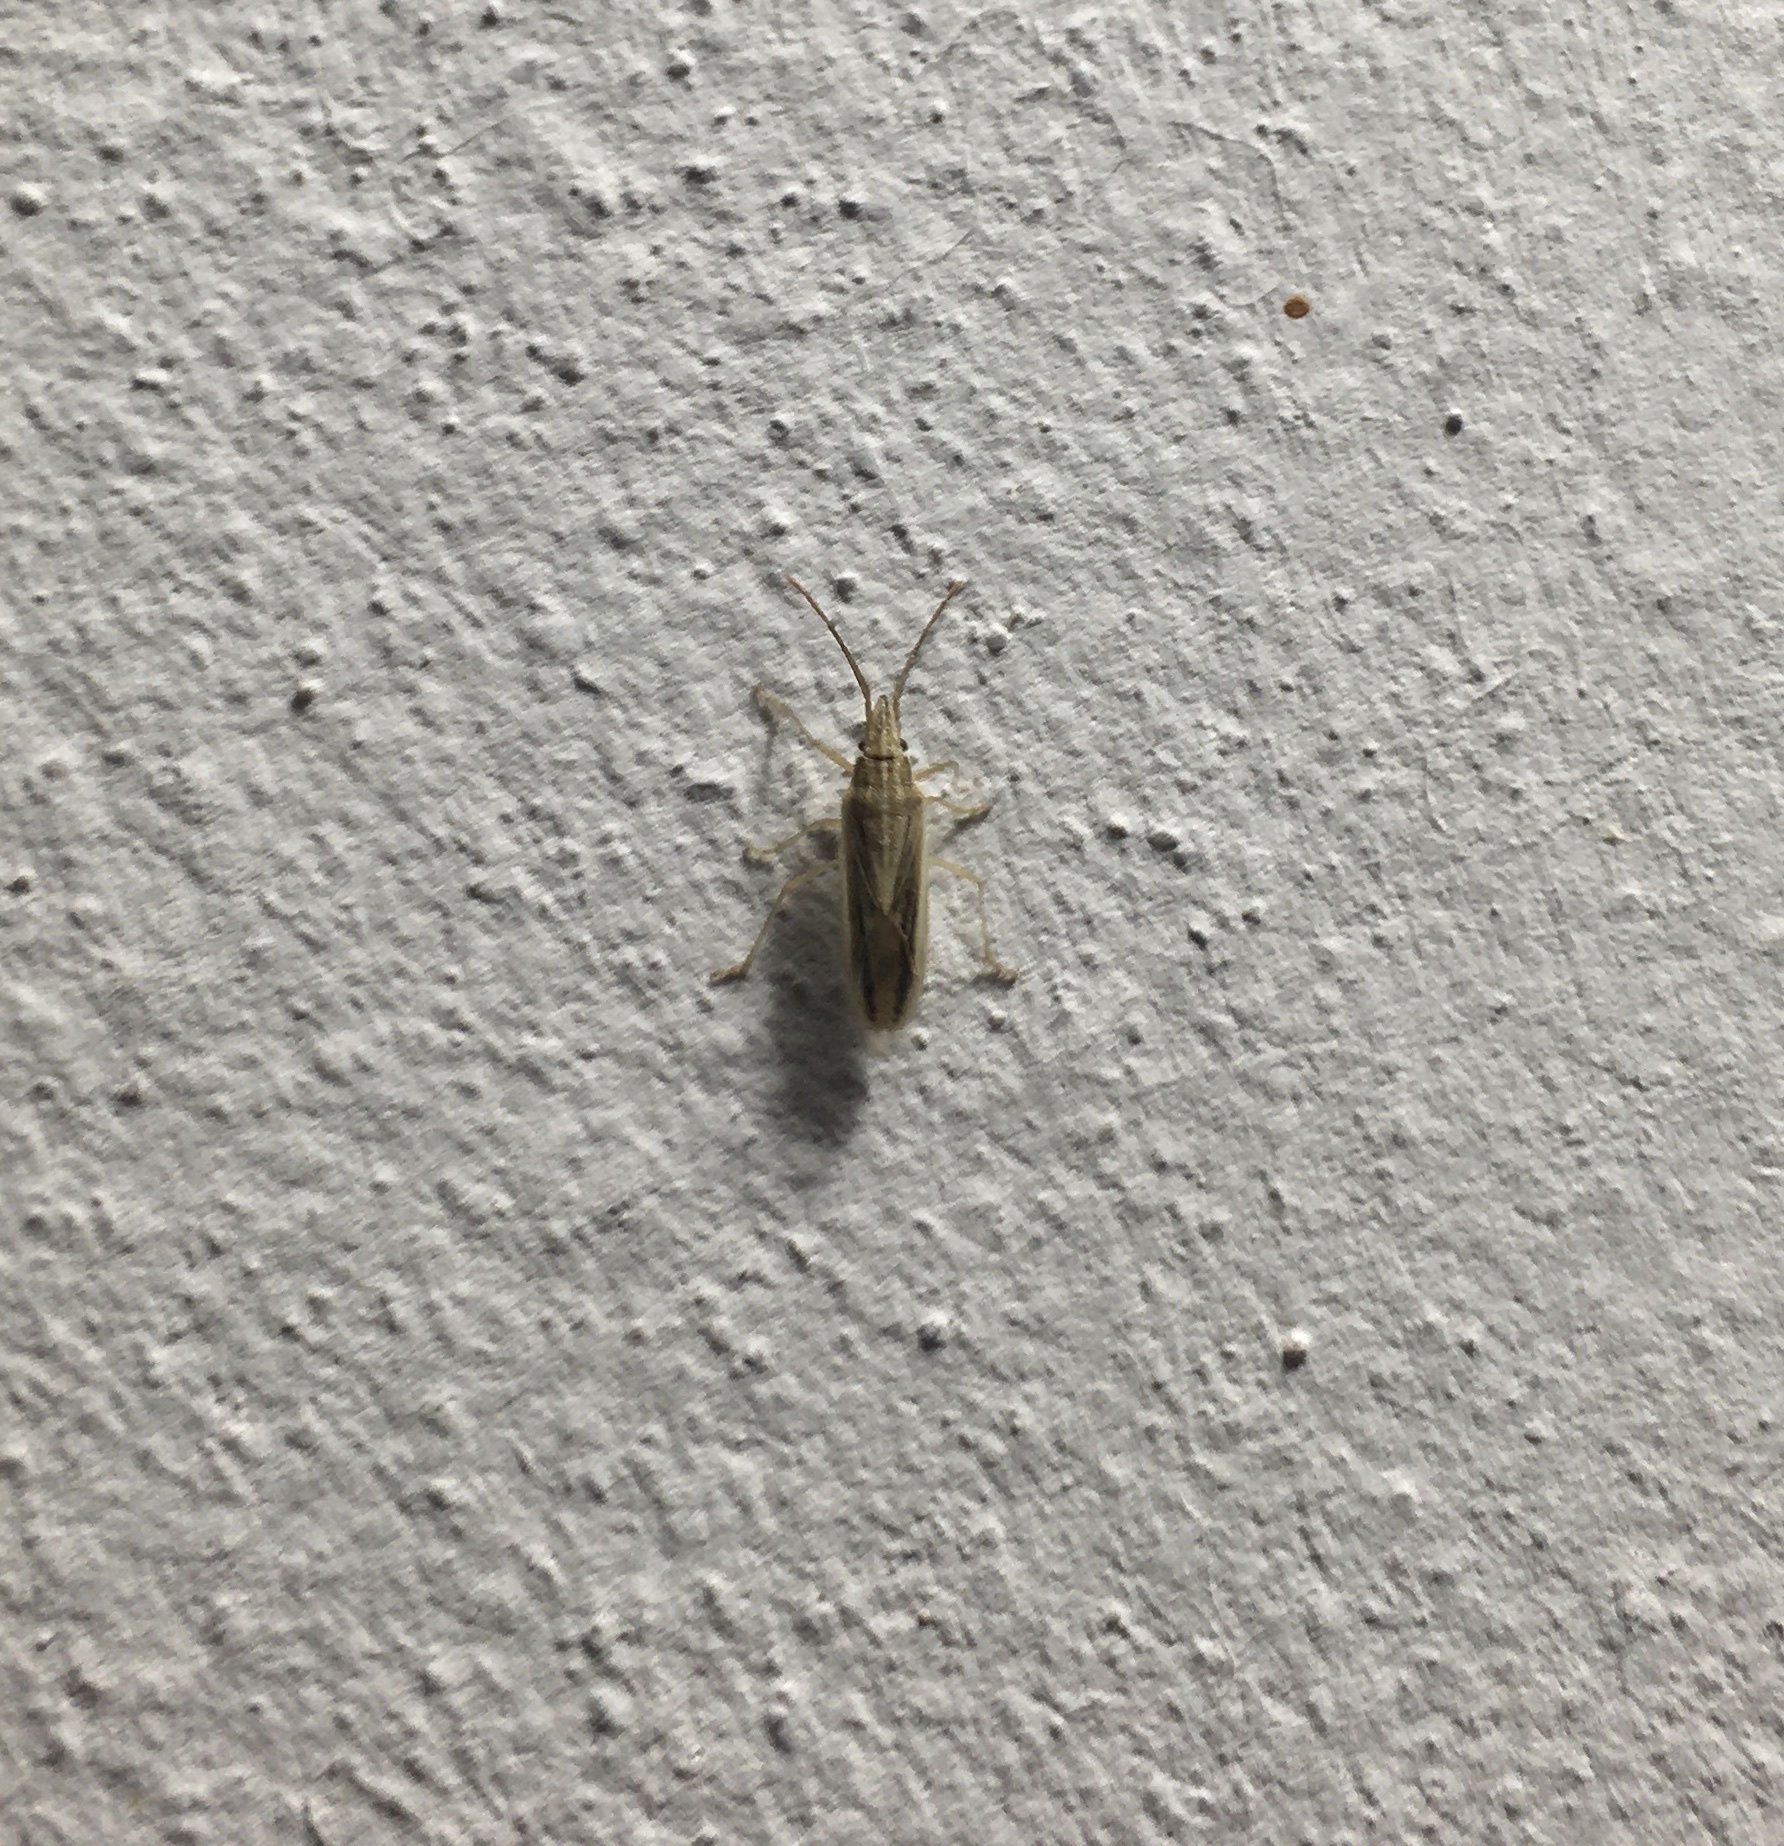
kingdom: Animalia
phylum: Arthropoda
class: Insecta
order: Hemiptera
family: Pentatomidae
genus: Mecidea
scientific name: Mecidea
